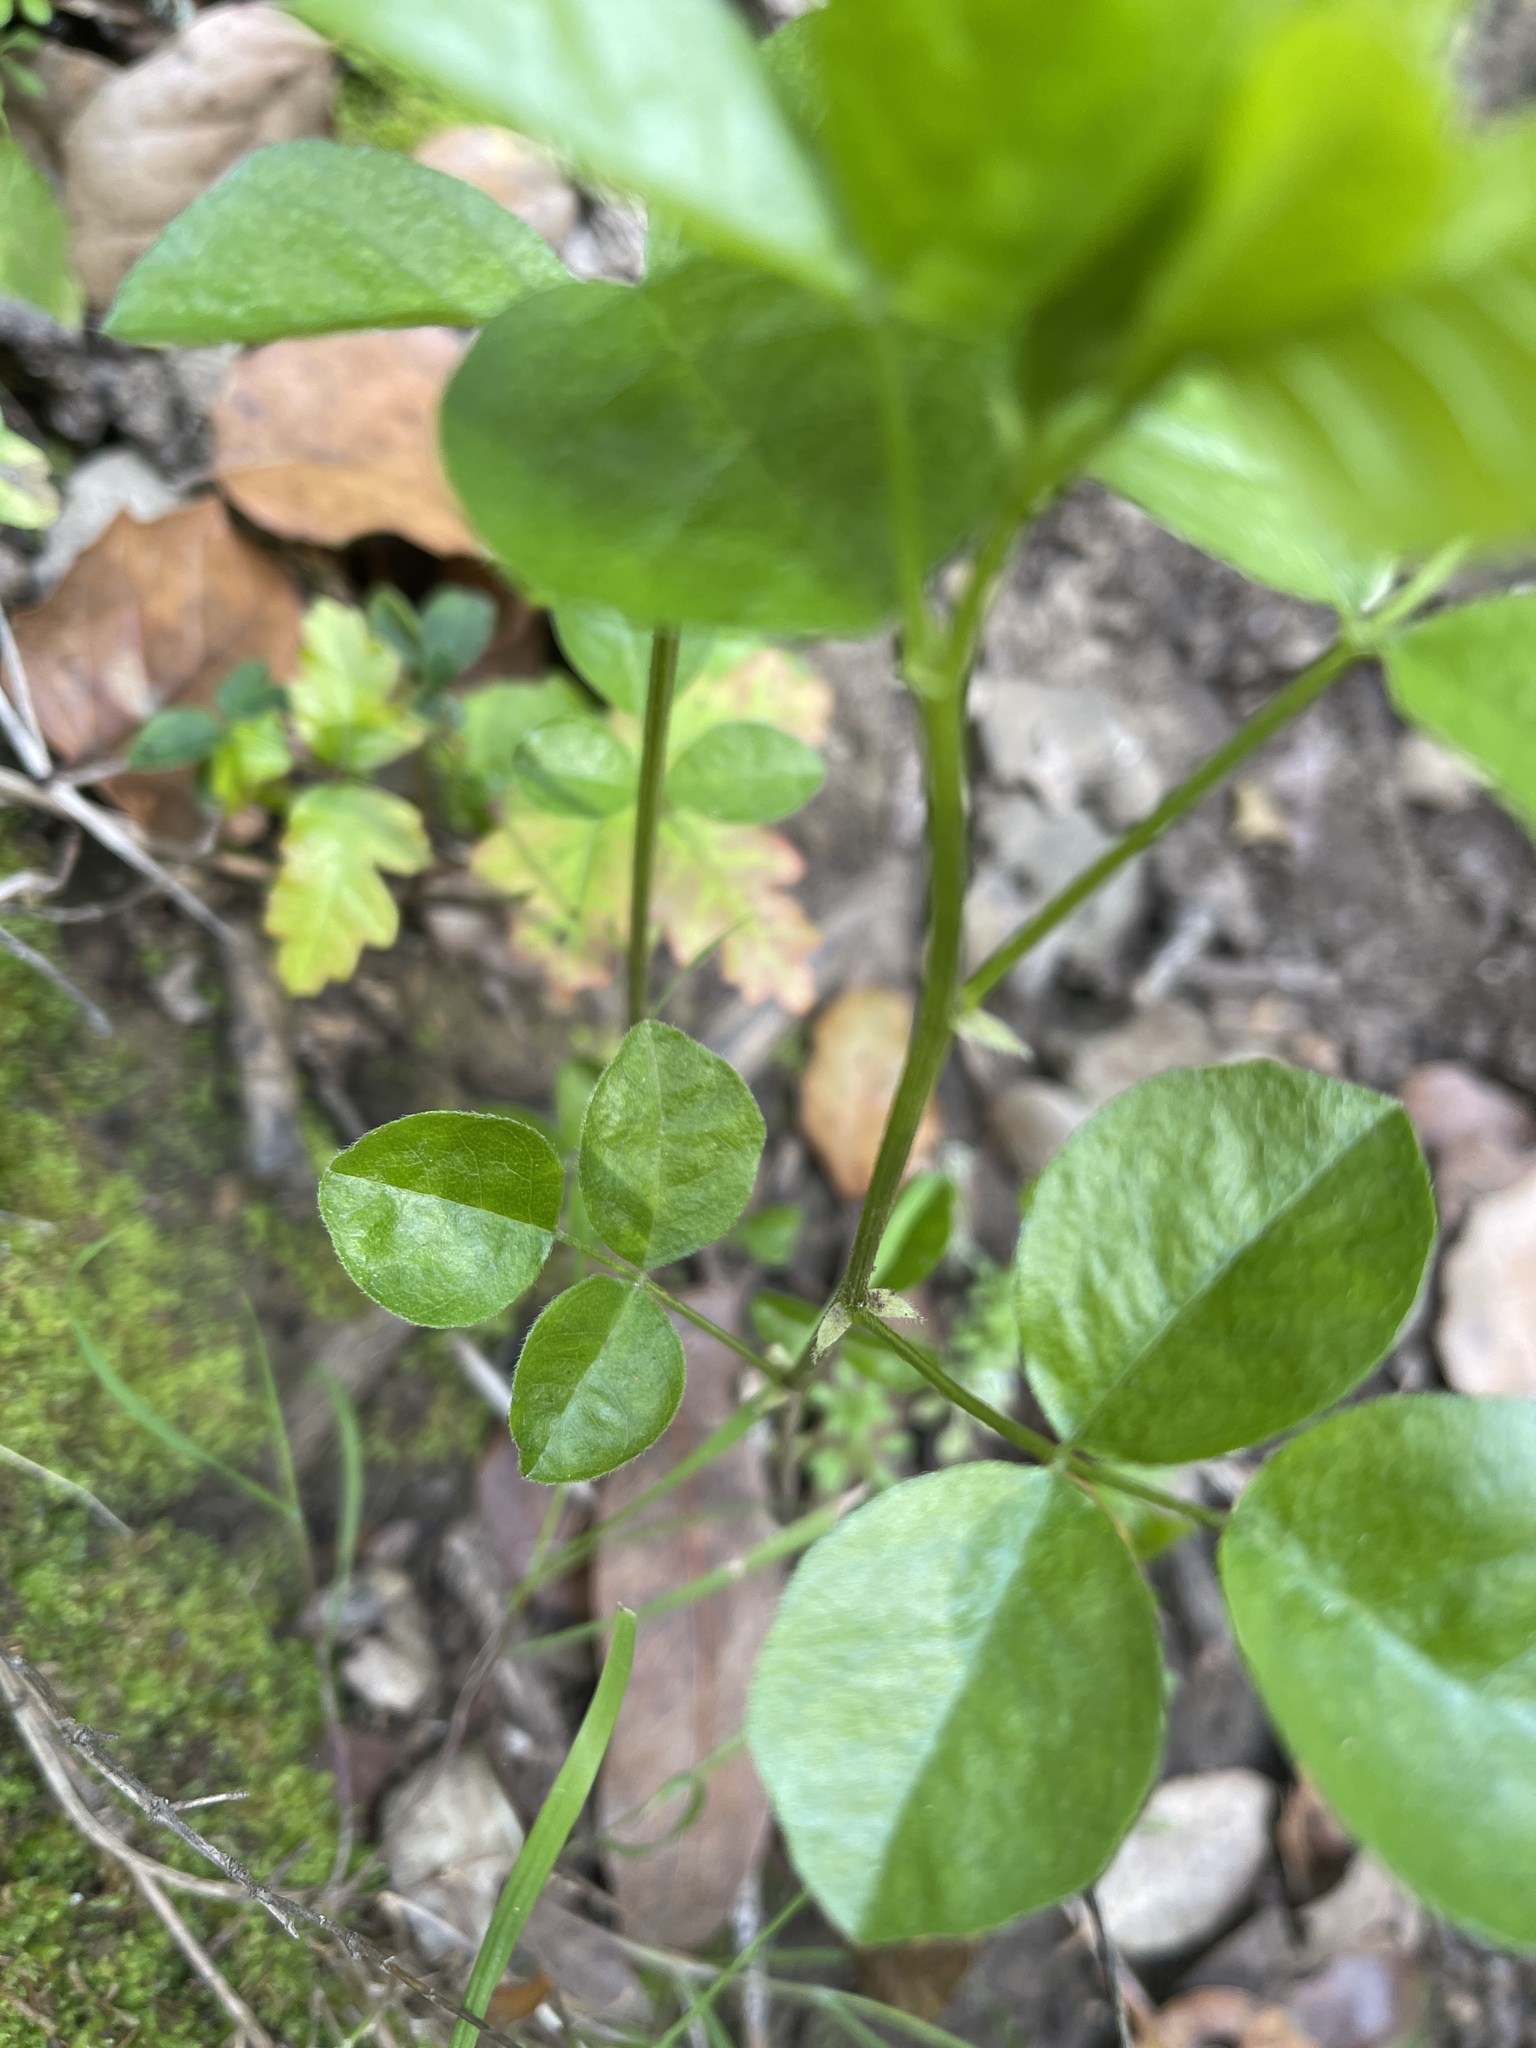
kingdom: Plantae
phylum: Tracheophyta
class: Magnoliopsida
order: Fabales
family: Fabaceae
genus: Rupertia
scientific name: Rupertia physodes
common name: California-tea
